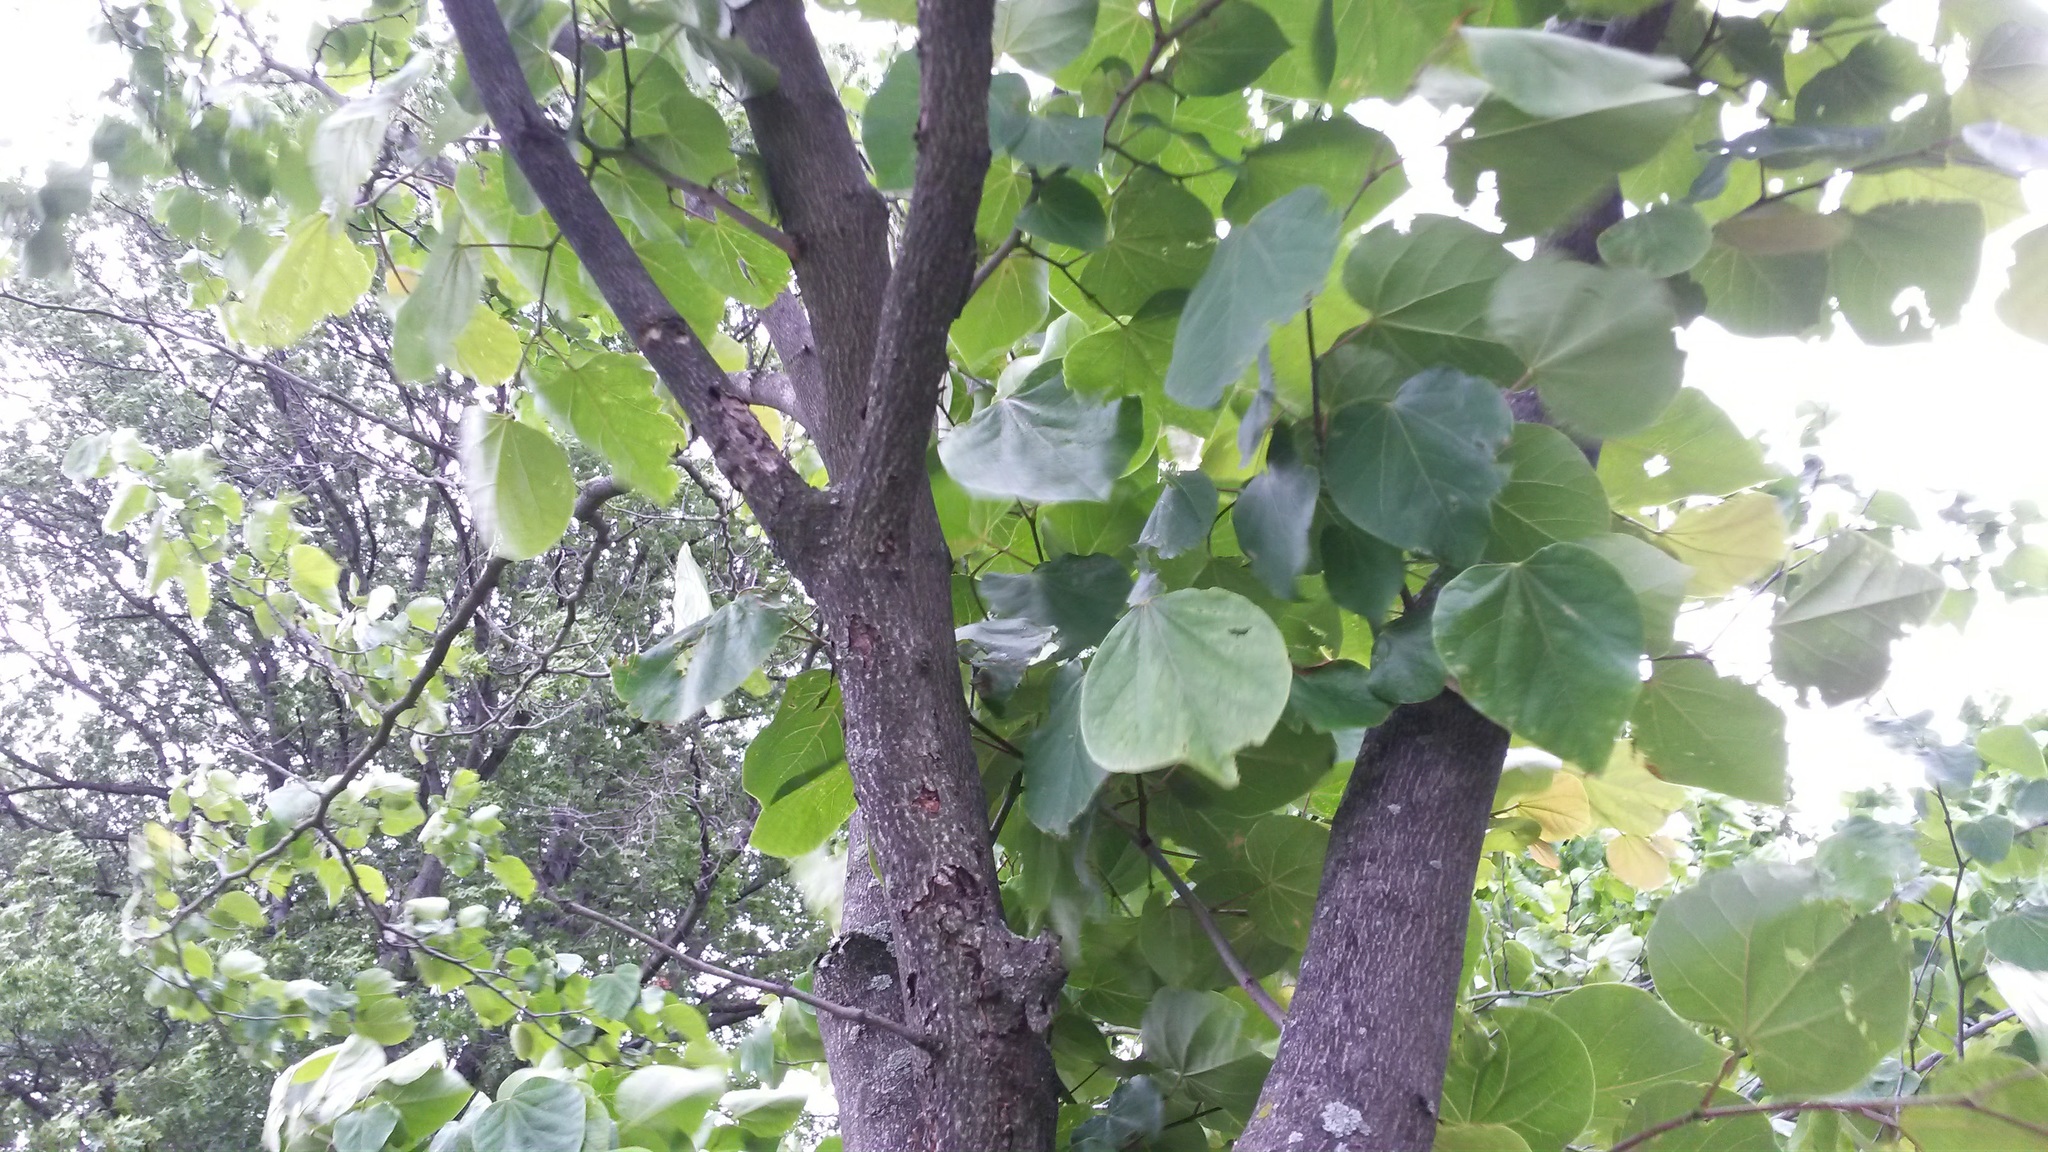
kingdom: Plantae
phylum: Tracheophyta
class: Magnoliopsida
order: Fabales
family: Fabaceae
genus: Cercis
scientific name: Cercis canadensis
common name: Eastern redbud
